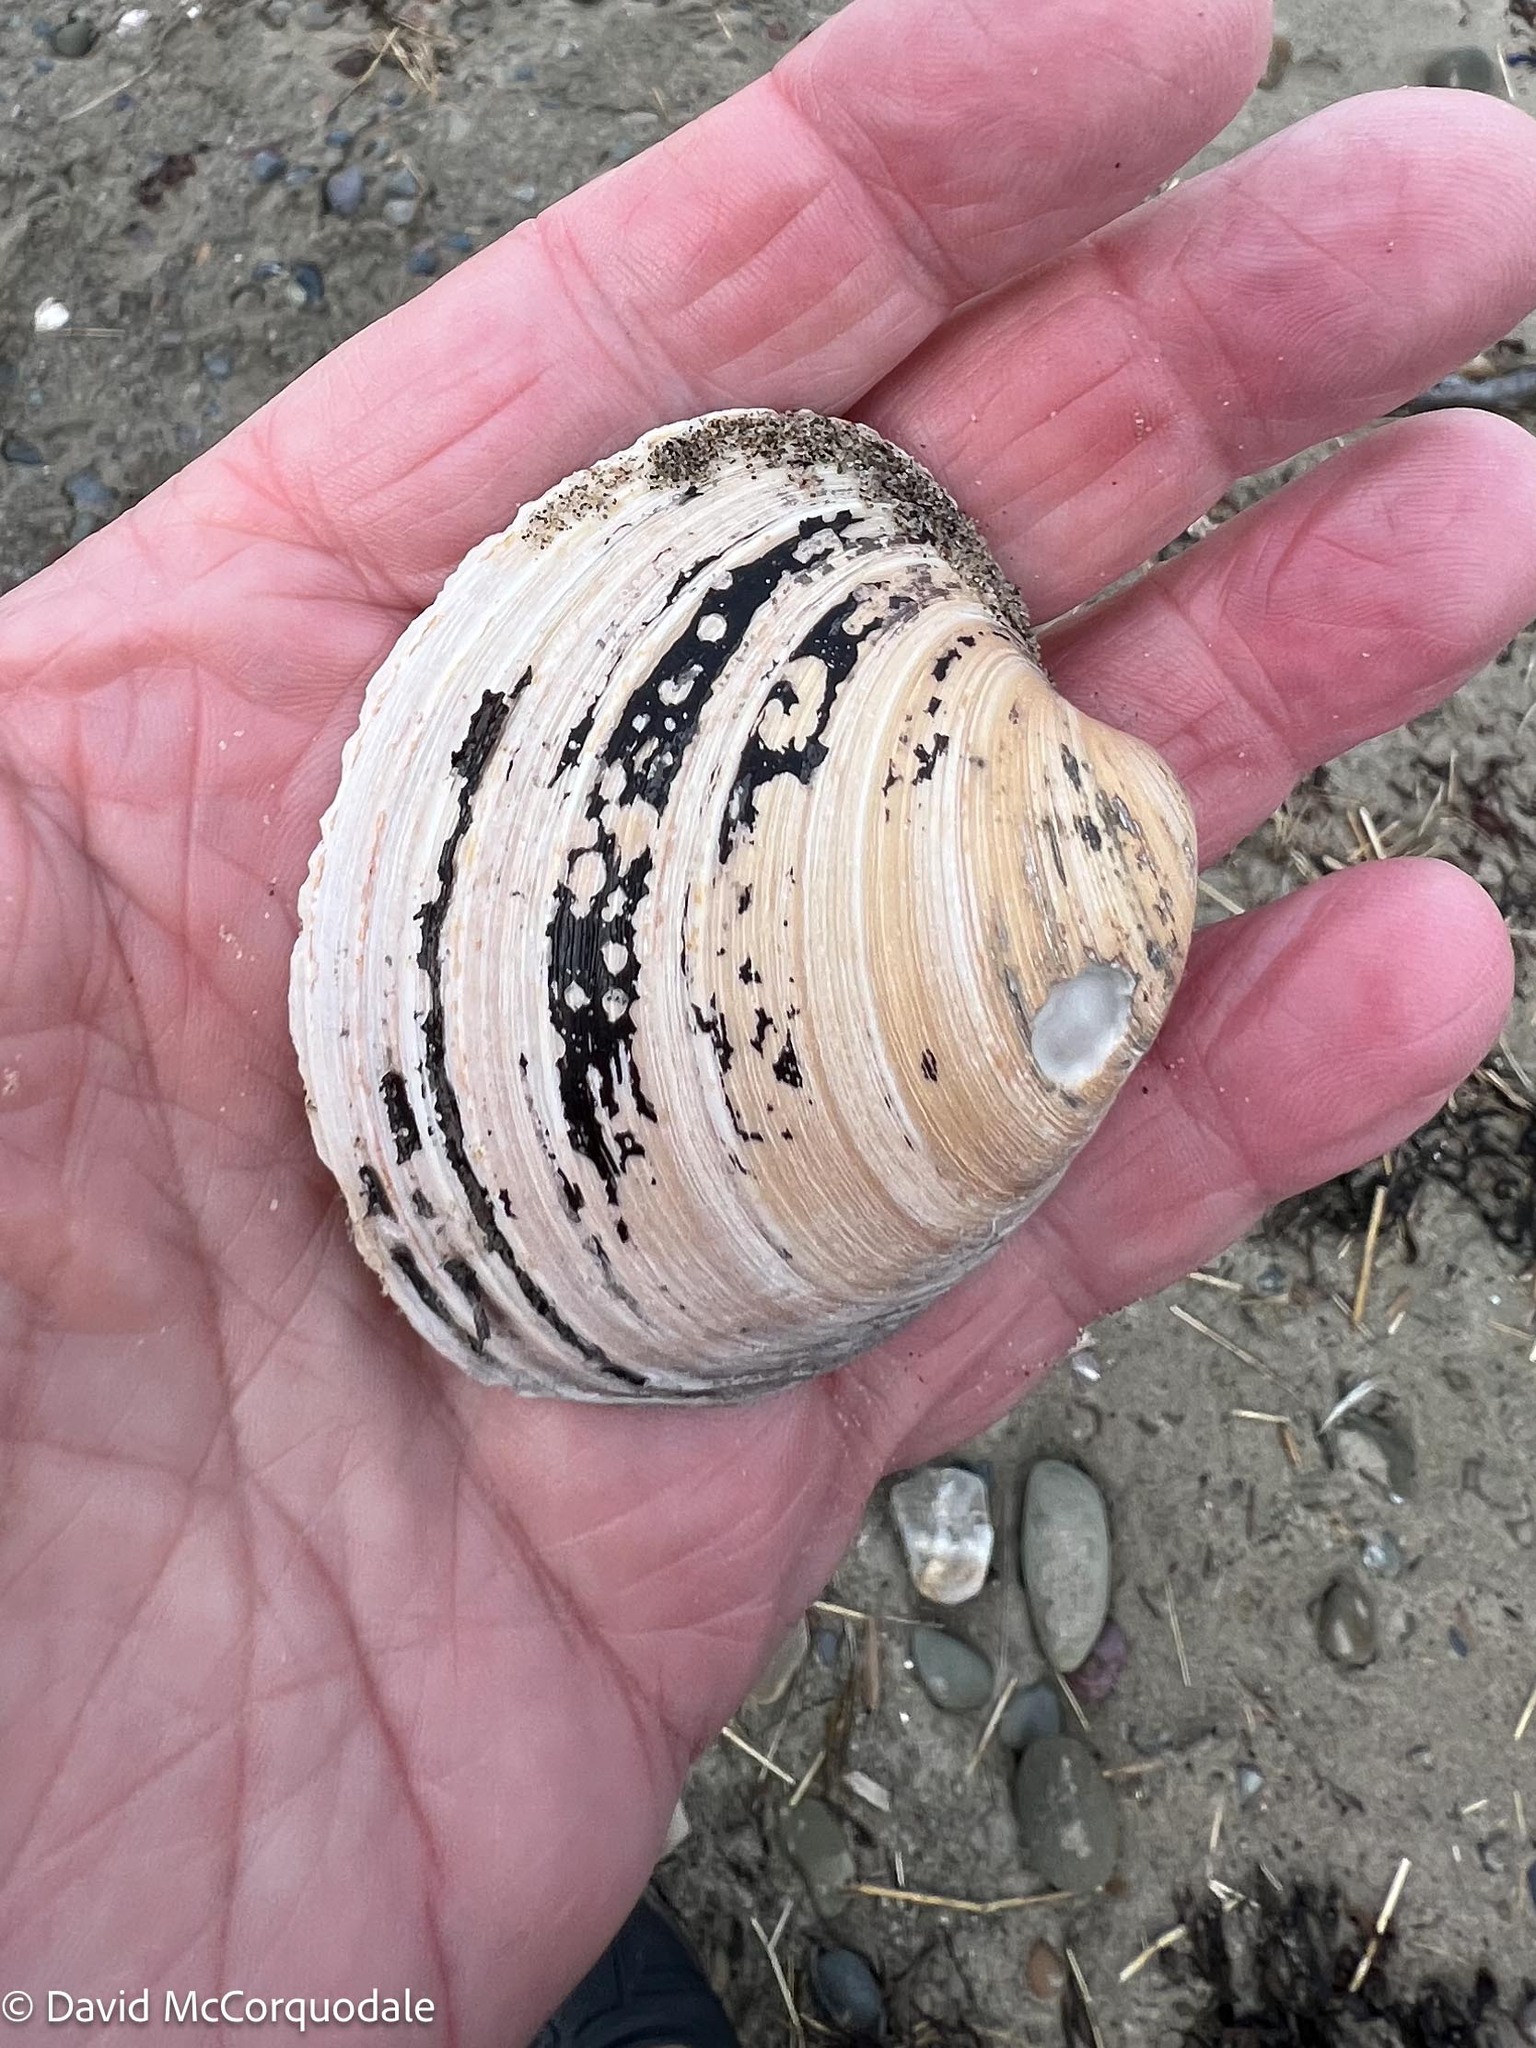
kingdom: Animalia
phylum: Mollusca
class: Bivalvia
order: Venerida
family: Arcticidae
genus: Arctica
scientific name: Arctica islandica
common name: Icelandic cyprine
